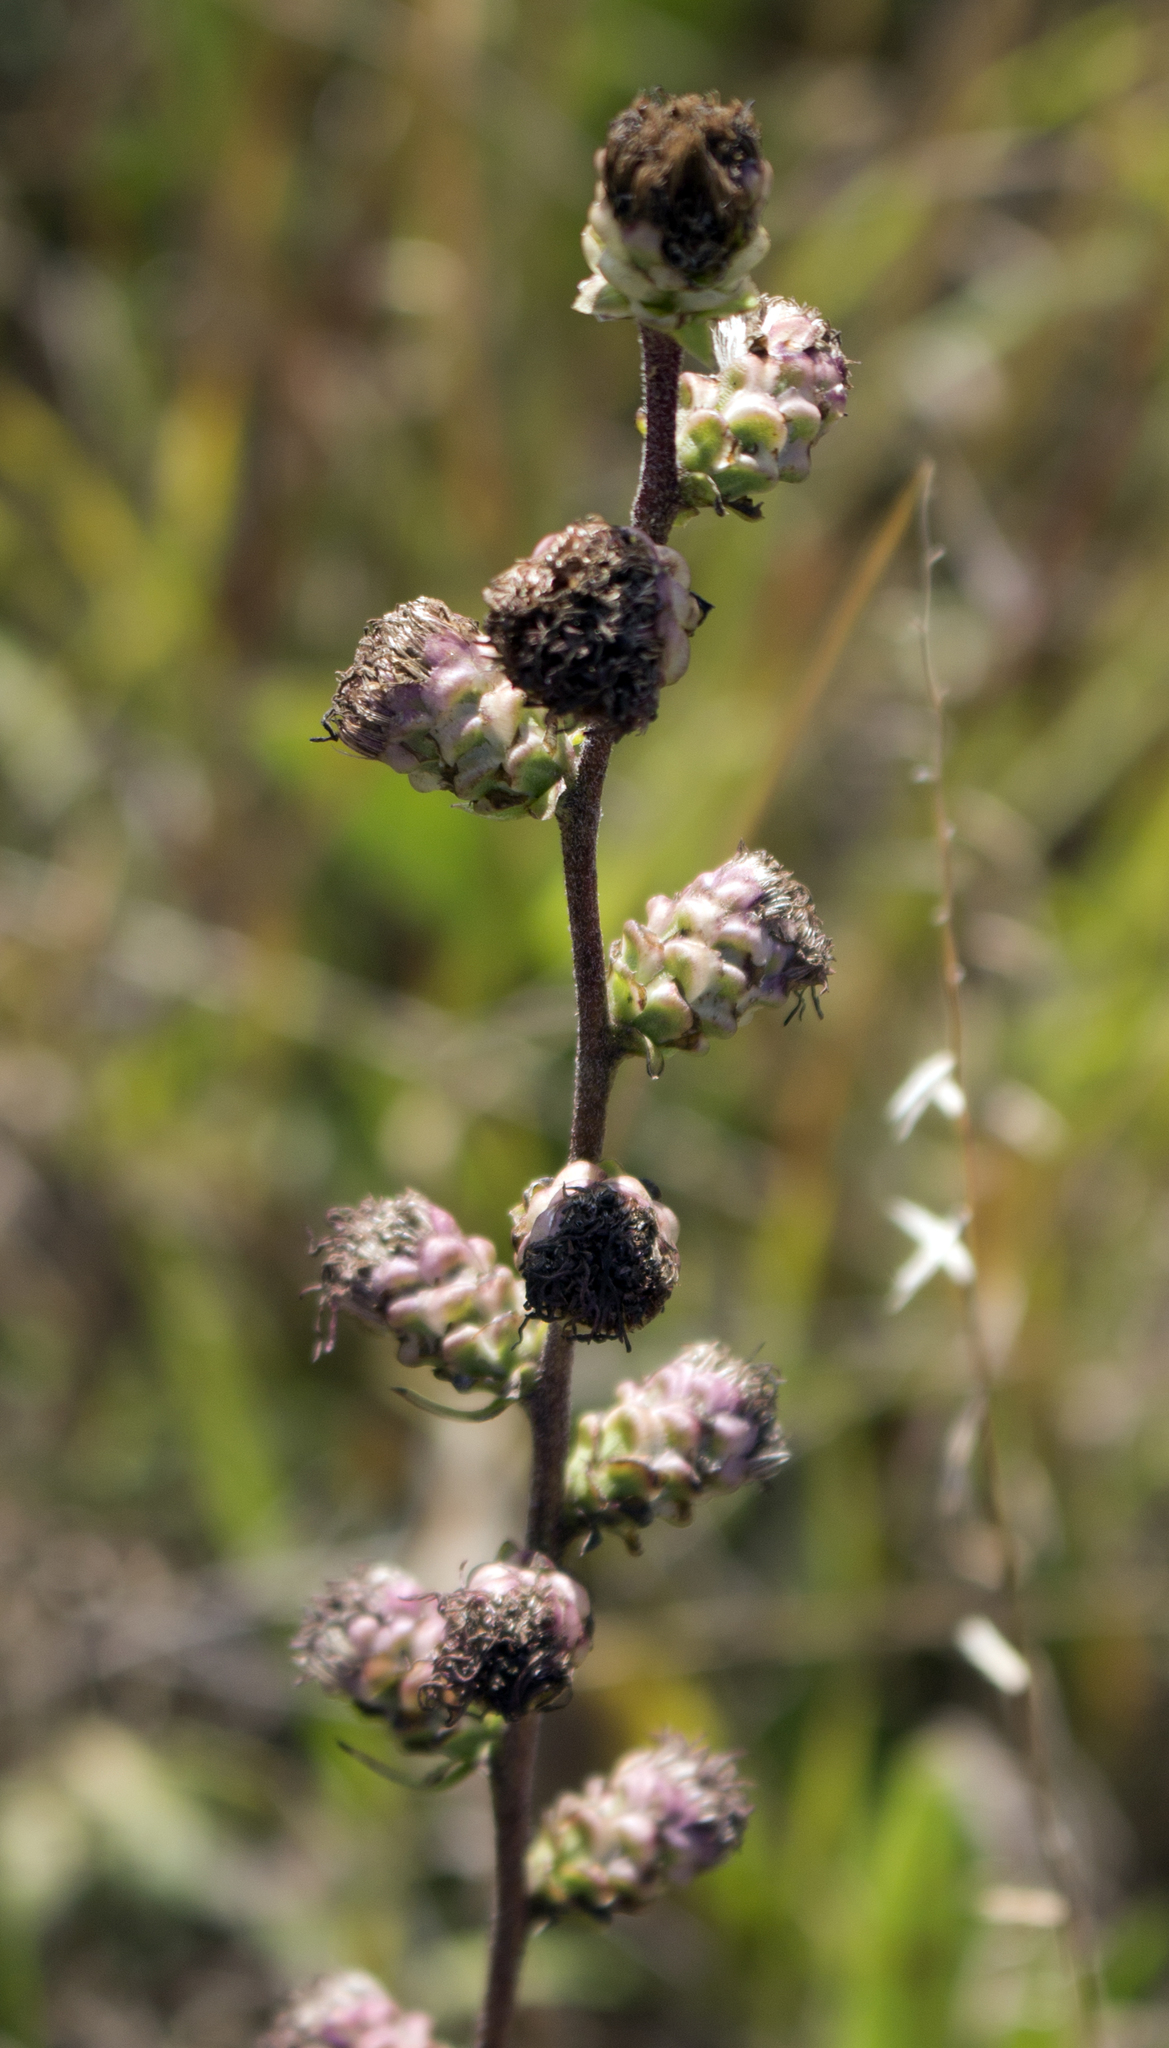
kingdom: Plantae
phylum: Tracheophyta
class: Magnoliopsida
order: Asterales
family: Asteraceae
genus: Liatris
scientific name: Liatris aspera
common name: Lacerate blazing-star
